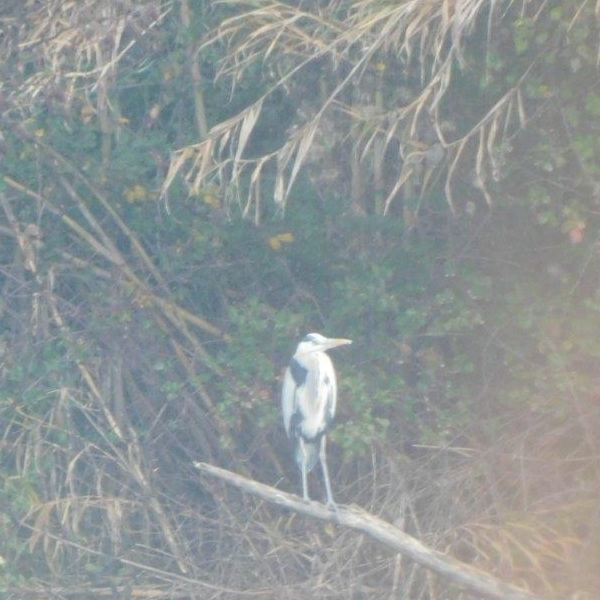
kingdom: Animalia
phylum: Chordata
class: Aves
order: Pelecaniformes
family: Ardeidae
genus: Ardea
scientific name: Ardea cinerea
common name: Grey heron
